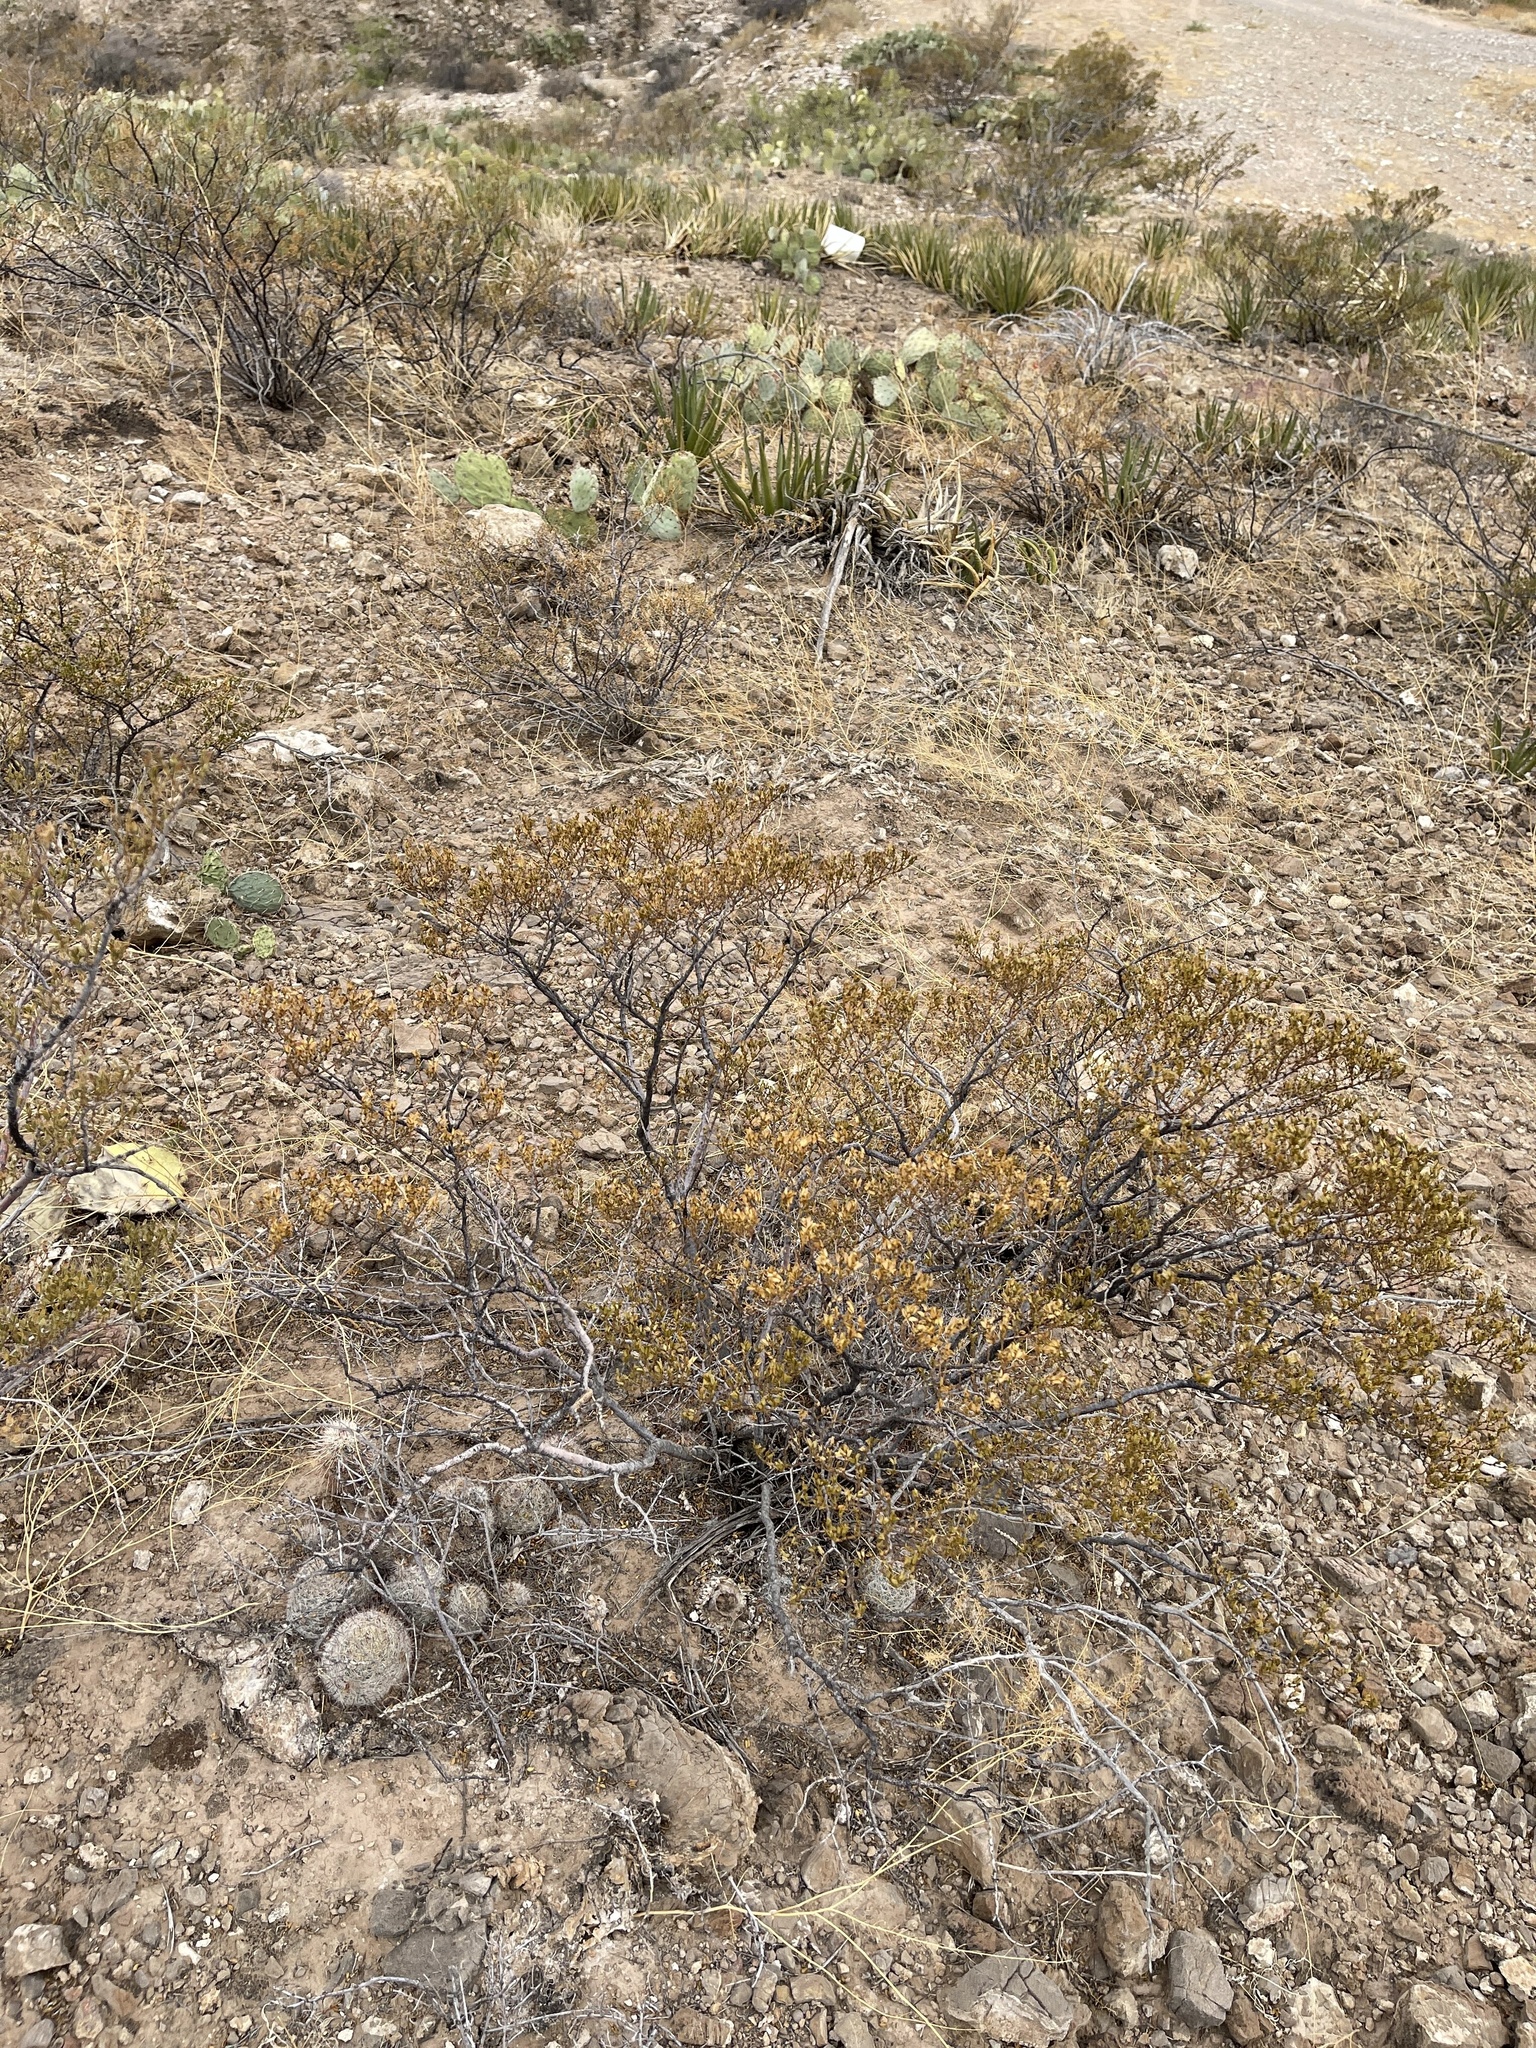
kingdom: Plantae
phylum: Tracheophyta
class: Magnoliopsida
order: Zygophyllales
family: Zygophyllaceae
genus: Larrea
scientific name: Larrea tridentata
